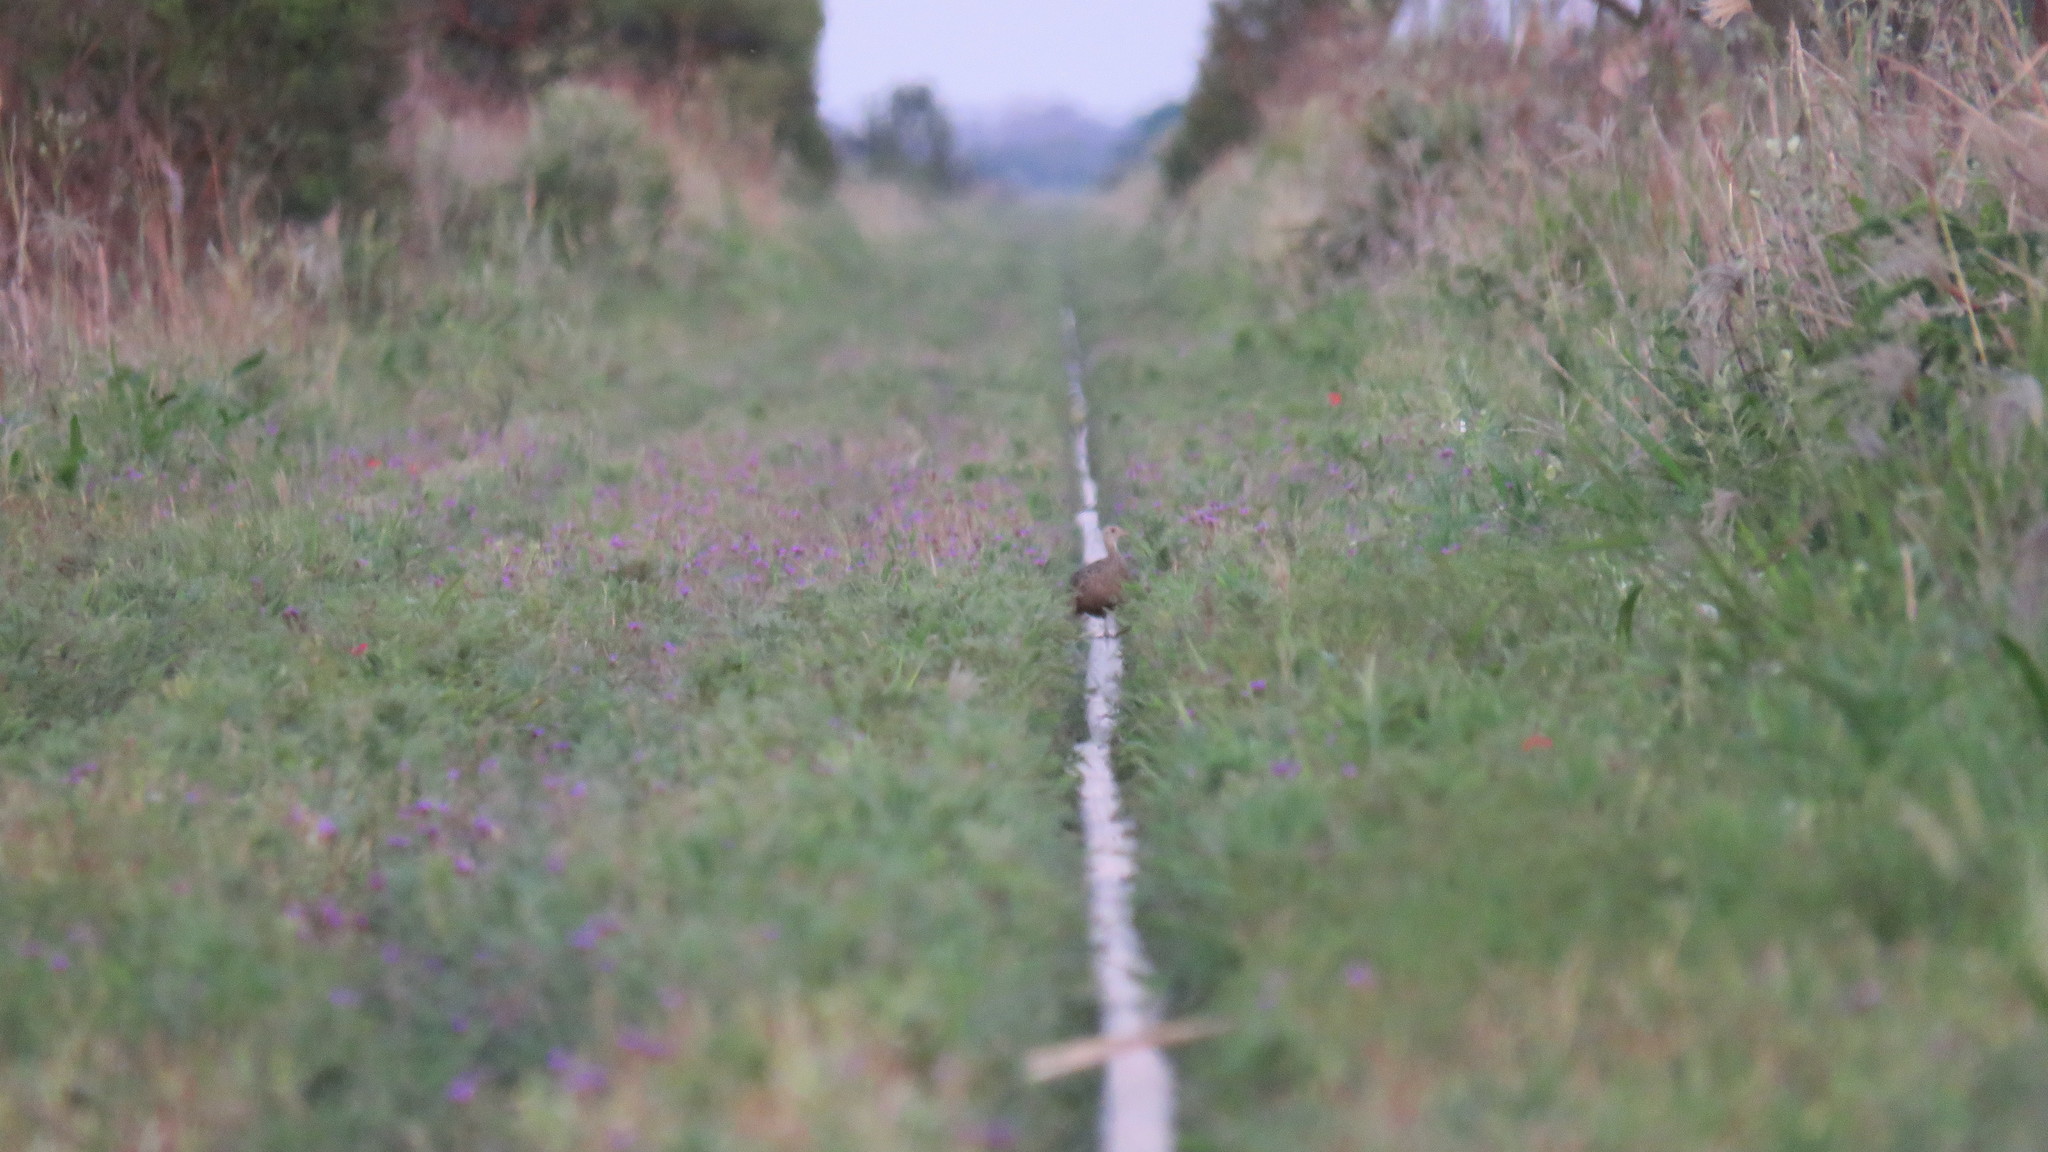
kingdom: Animalia
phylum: Chordata
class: Aves
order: Tinamiformes
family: Tinamidae
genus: Nothura
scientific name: Nothura maculosa
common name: Spotted nothura
